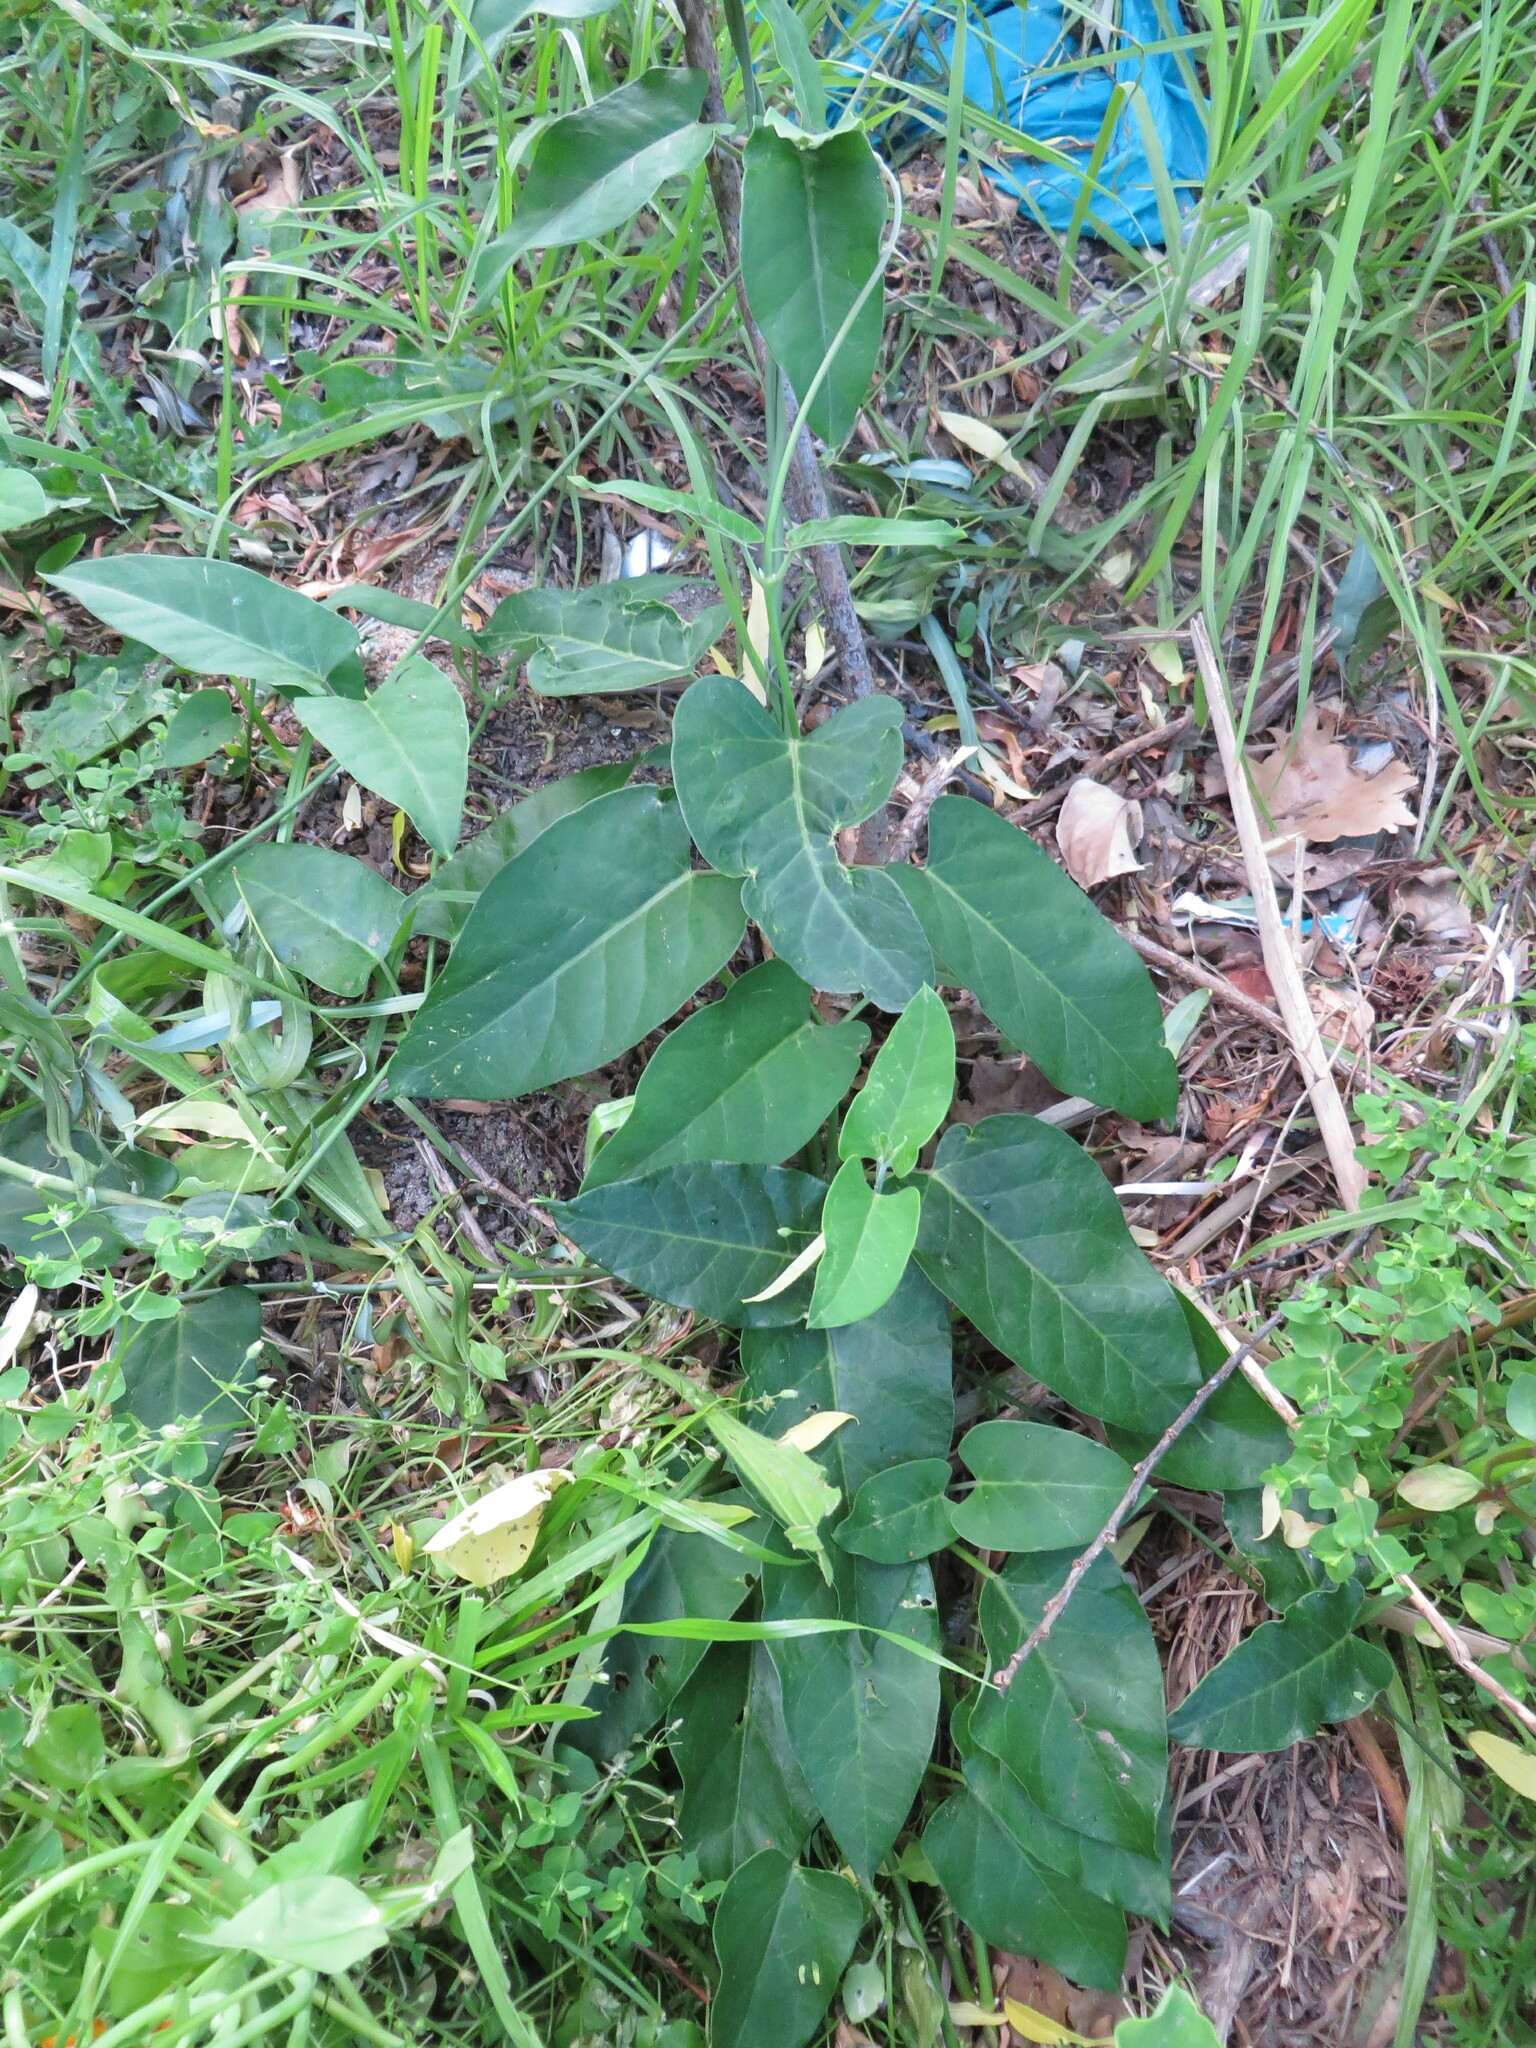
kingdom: Plantae
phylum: Tracheophyta
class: Magnoliopsida
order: Gentianales
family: Apocynaceae
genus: Araujia
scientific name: Araujia sericifera
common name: White bladderflower
